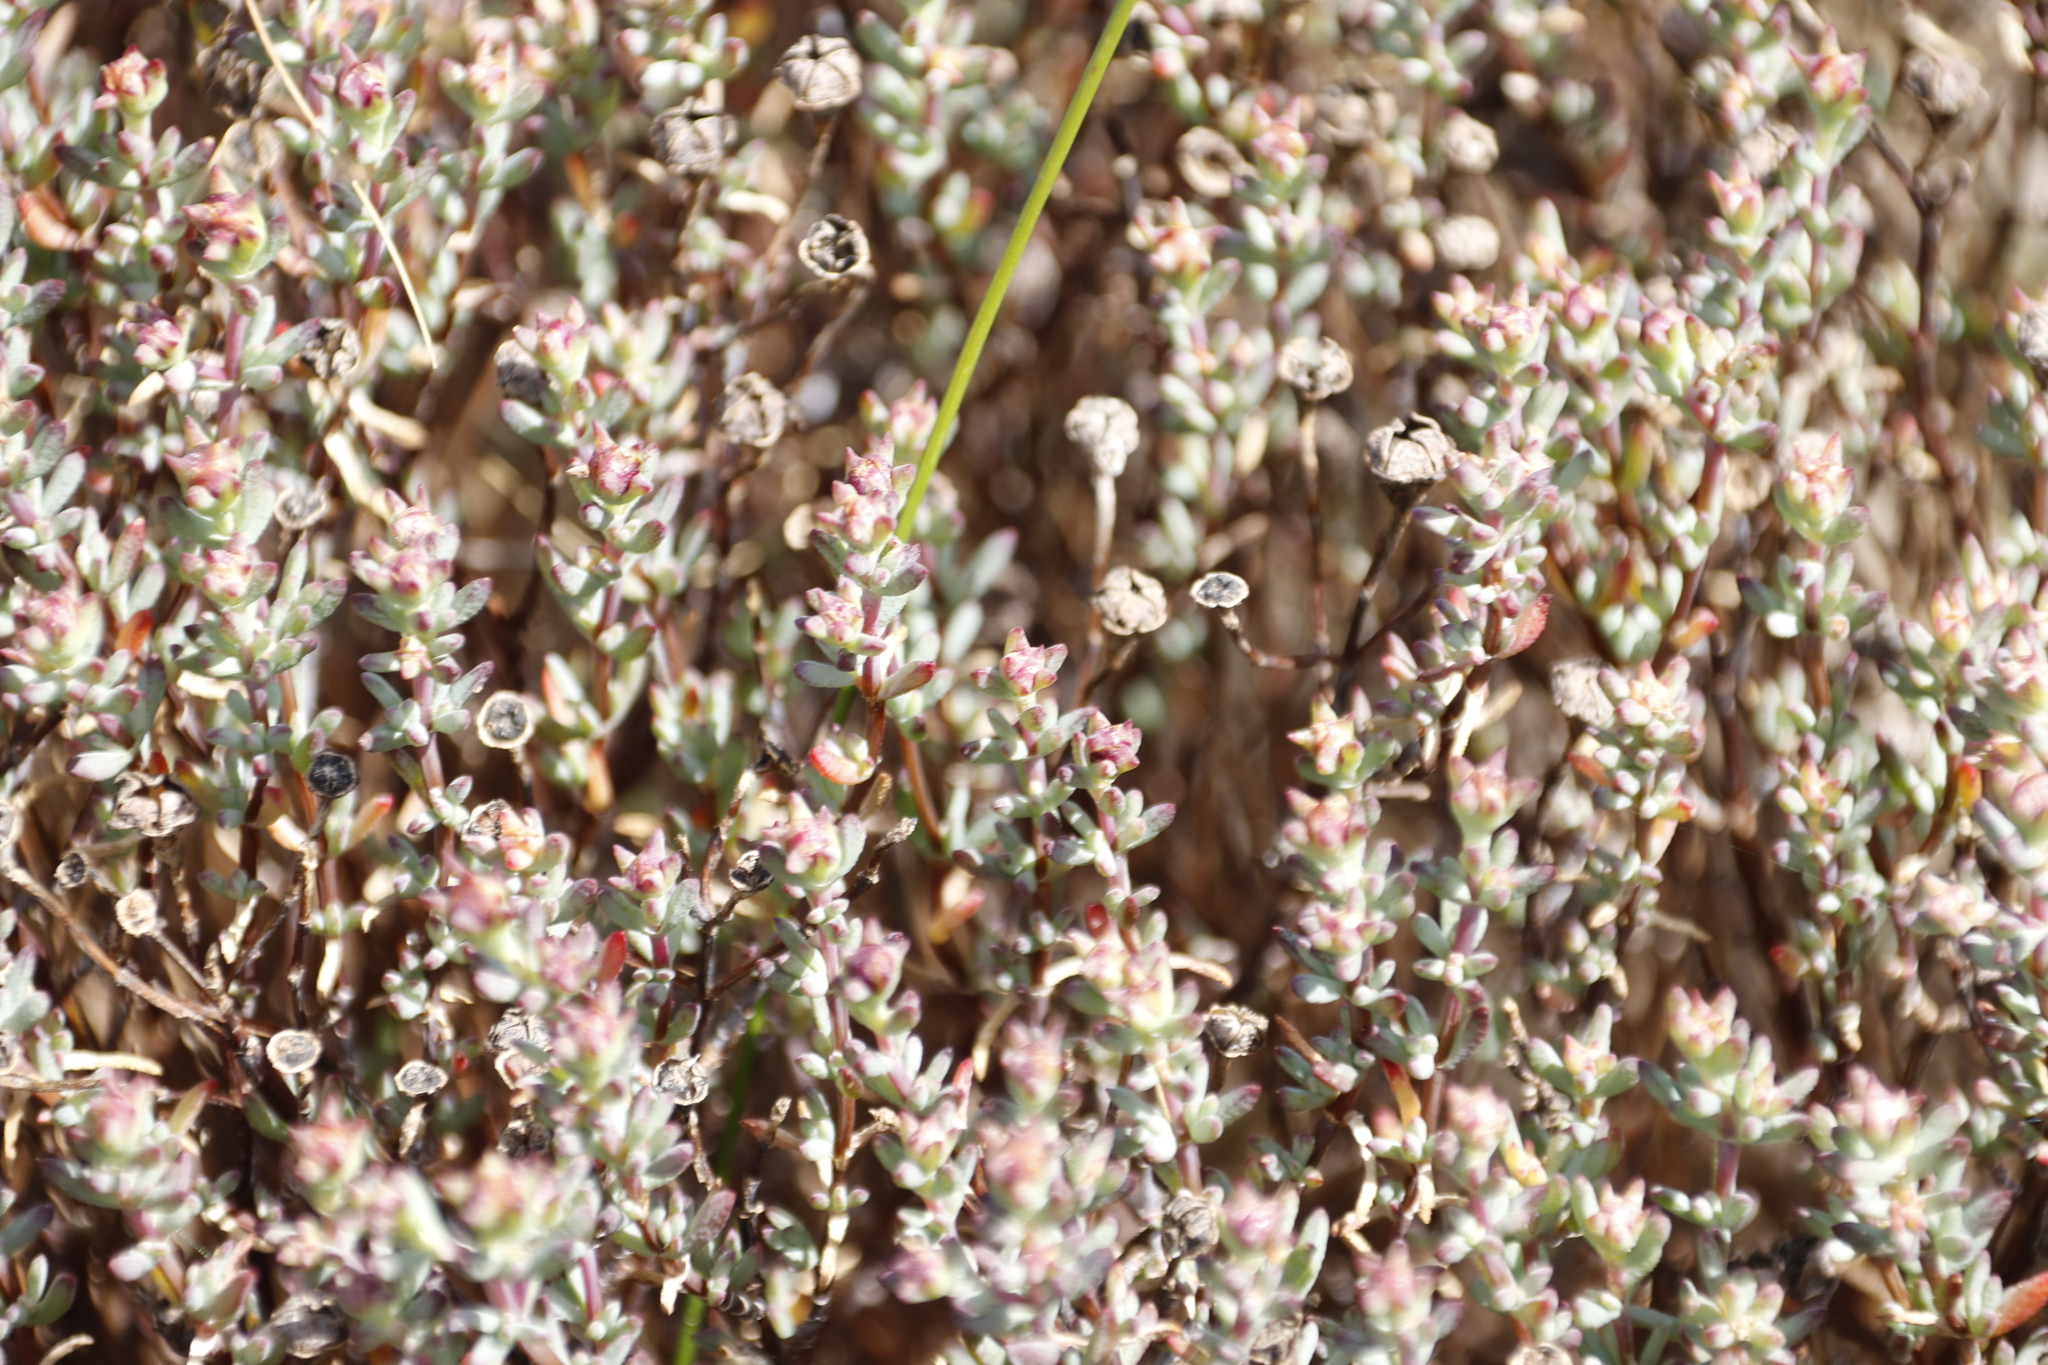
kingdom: Plantae
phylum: Tracheophyta
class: Magnoliopsida
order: Caryophyllales
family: Aizoaceae
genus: Lampranthus
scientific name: Lampranthus emarginatus
